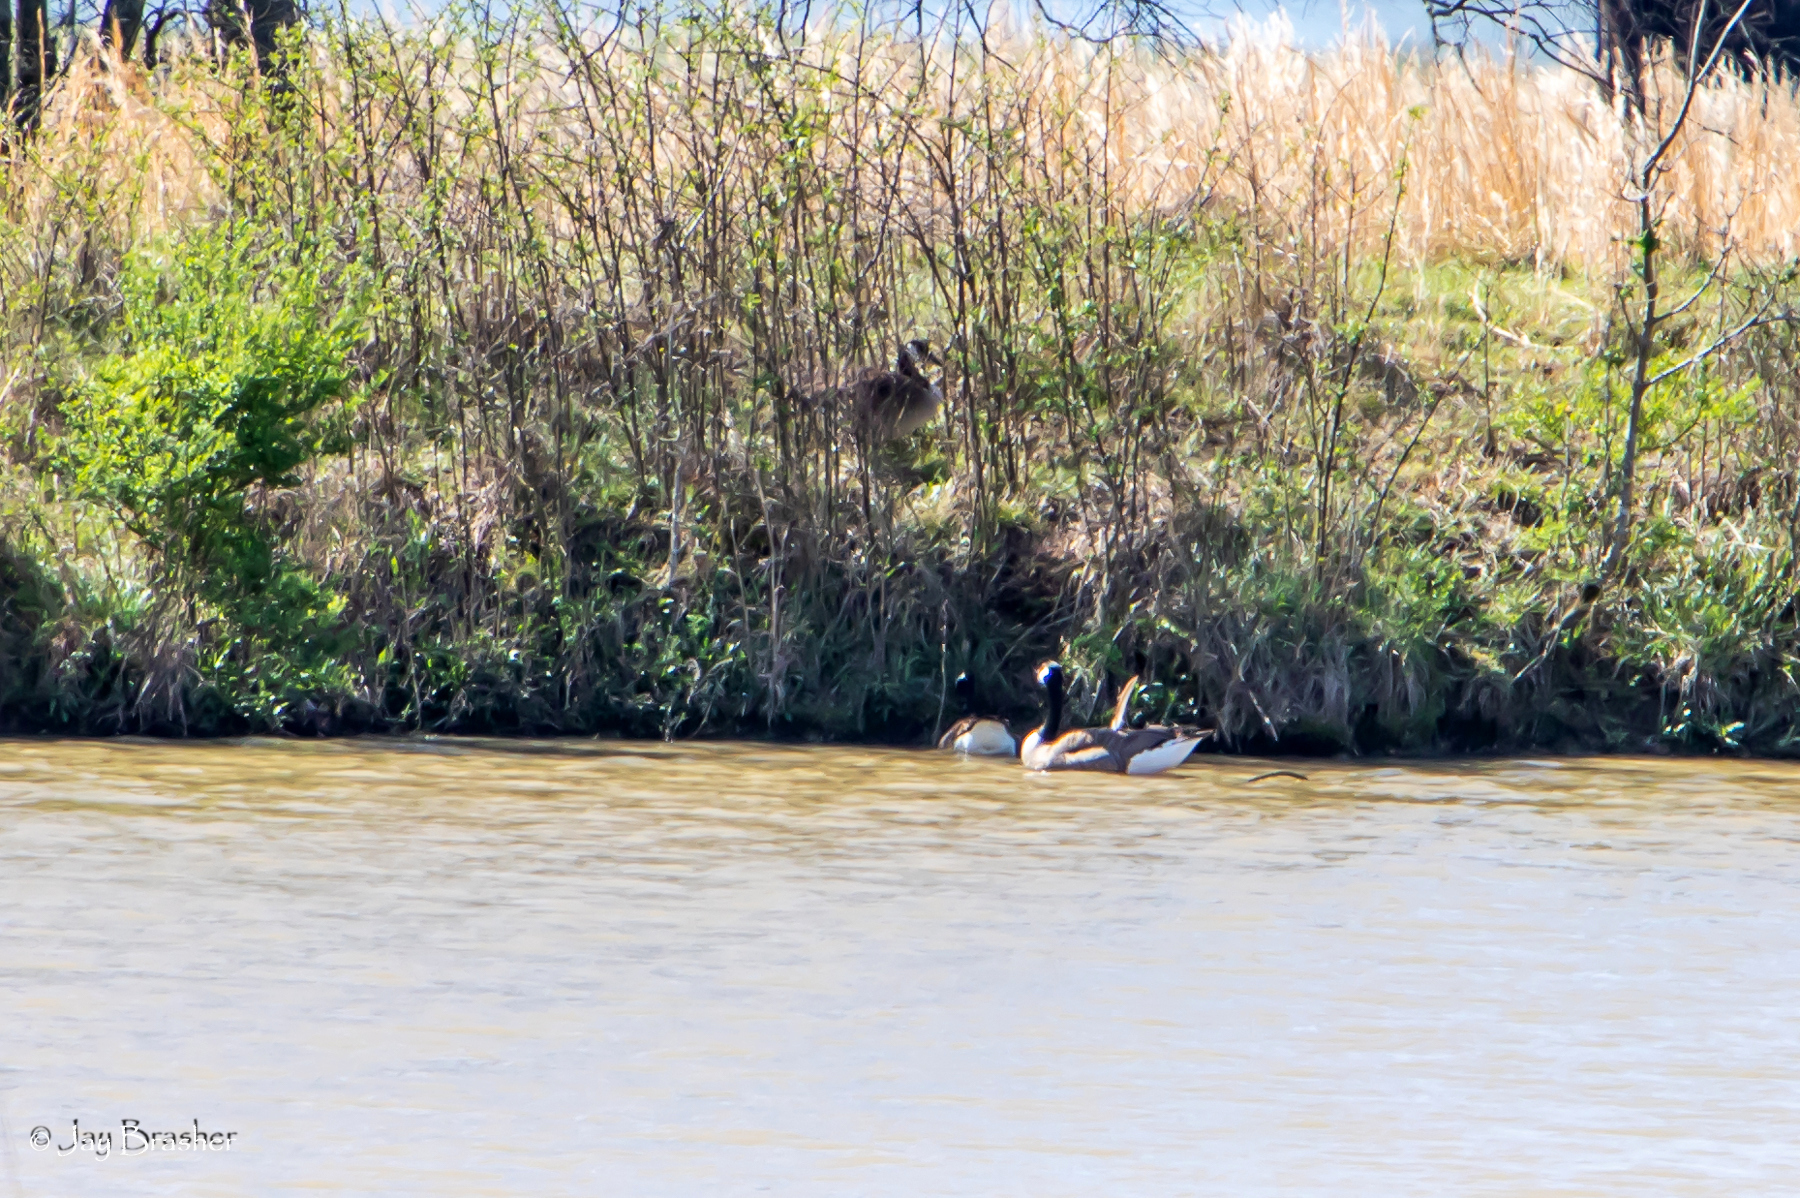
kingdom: Animalia
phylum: Chordata
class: Aves
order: Anseriformes
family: Anatidae
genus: Branta
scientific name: Branta canadensis
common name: Canada goose
